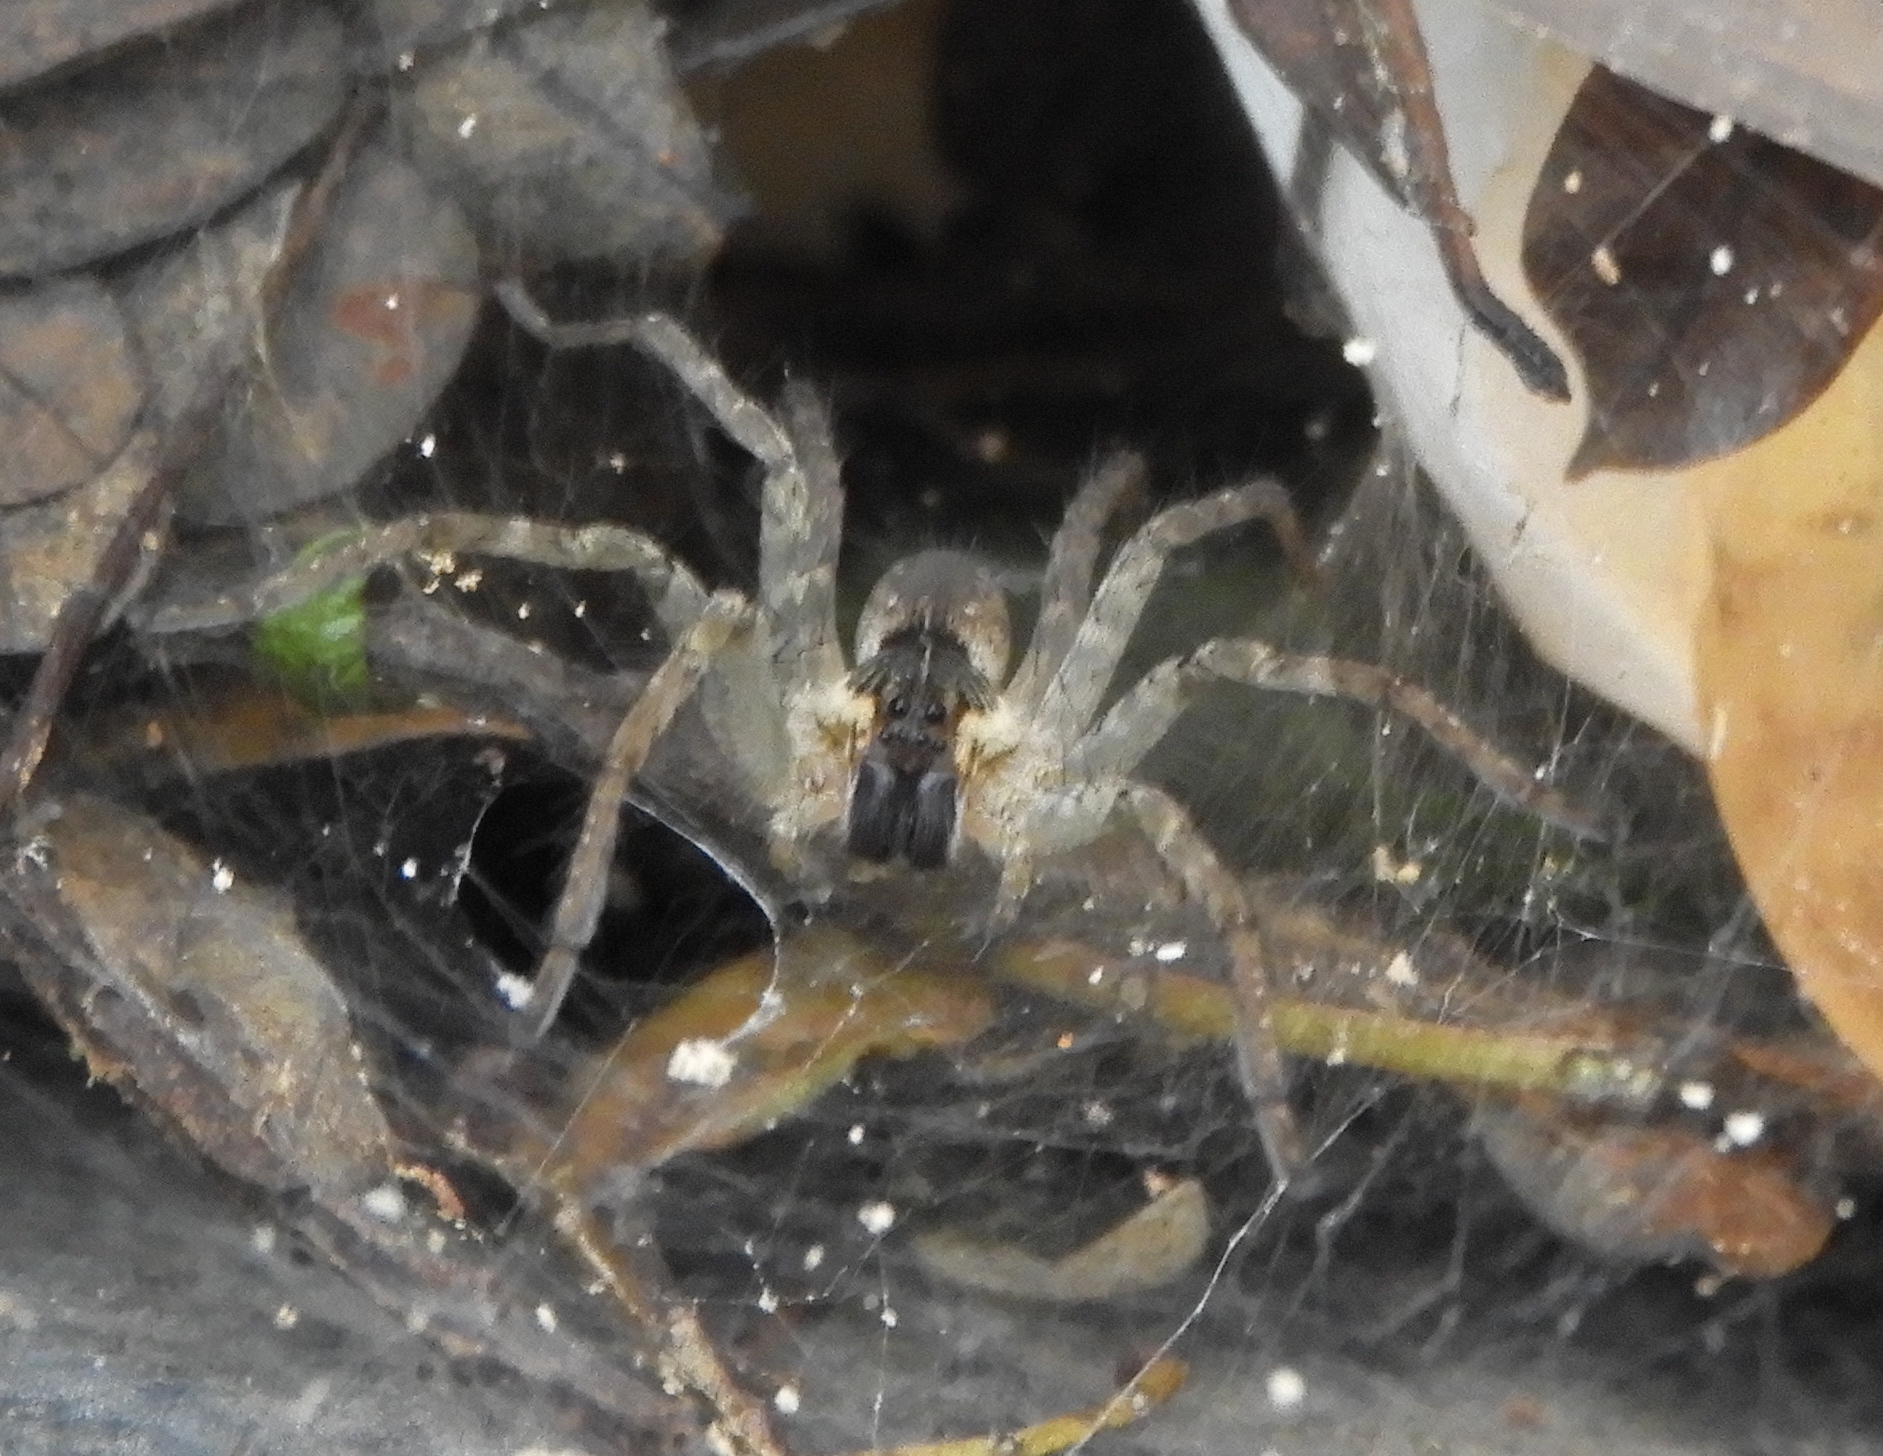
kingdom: Animalia
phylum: Arthropoda
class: Arachnida
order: Araneae
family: Lycosidae
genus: Sosippus
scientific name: Sosippus californicus
